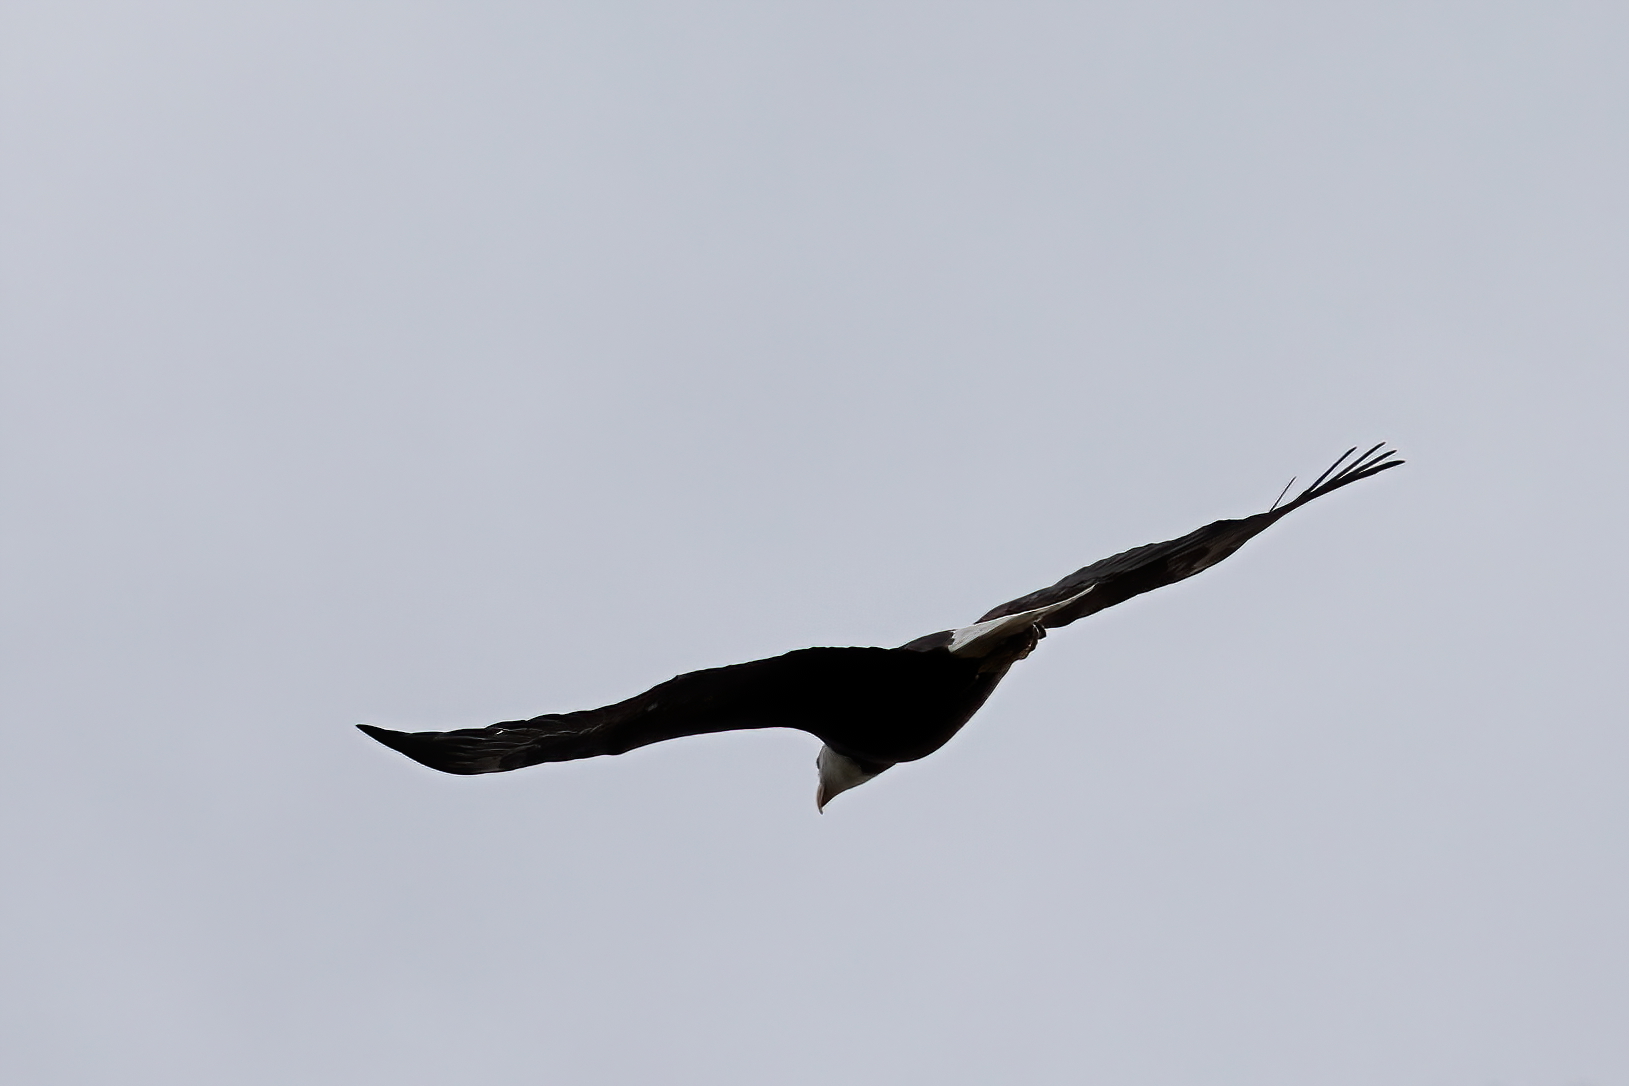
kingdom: Animalia
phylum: Chordata
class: Aves
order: Accipitriformes
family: Accipitridae
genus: Haliaeetus
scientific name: Haliaeetus leucocephalus
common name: Bald eagle
